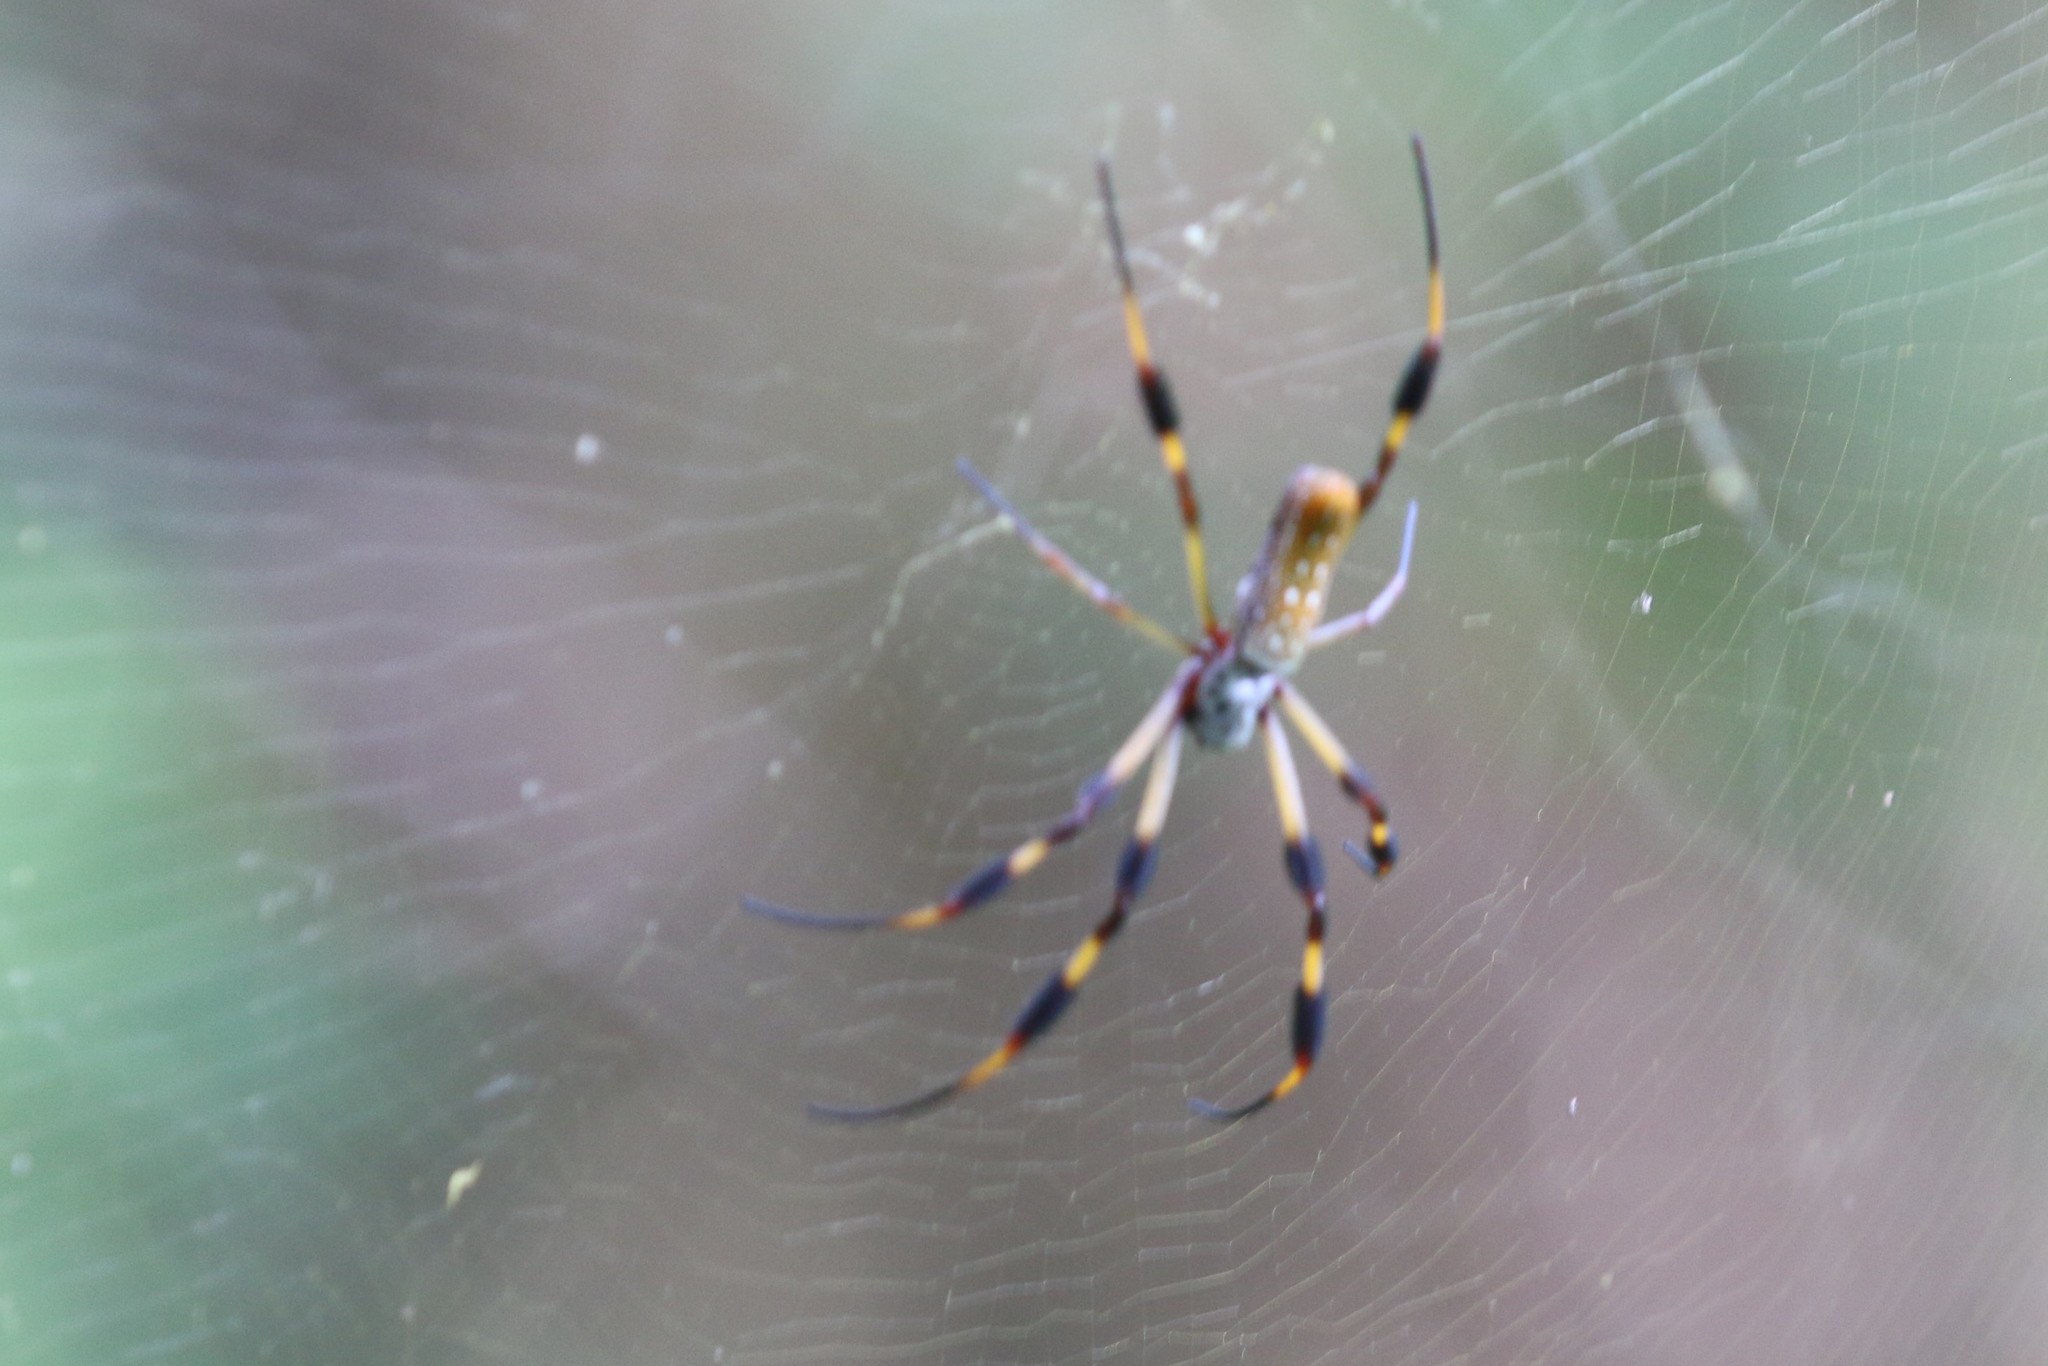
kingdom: Animalia
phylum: Arthropoda
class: Arachnida
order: Araneae
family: Araneidae
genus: Trichonephila
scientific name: Trichonephila clavipes
